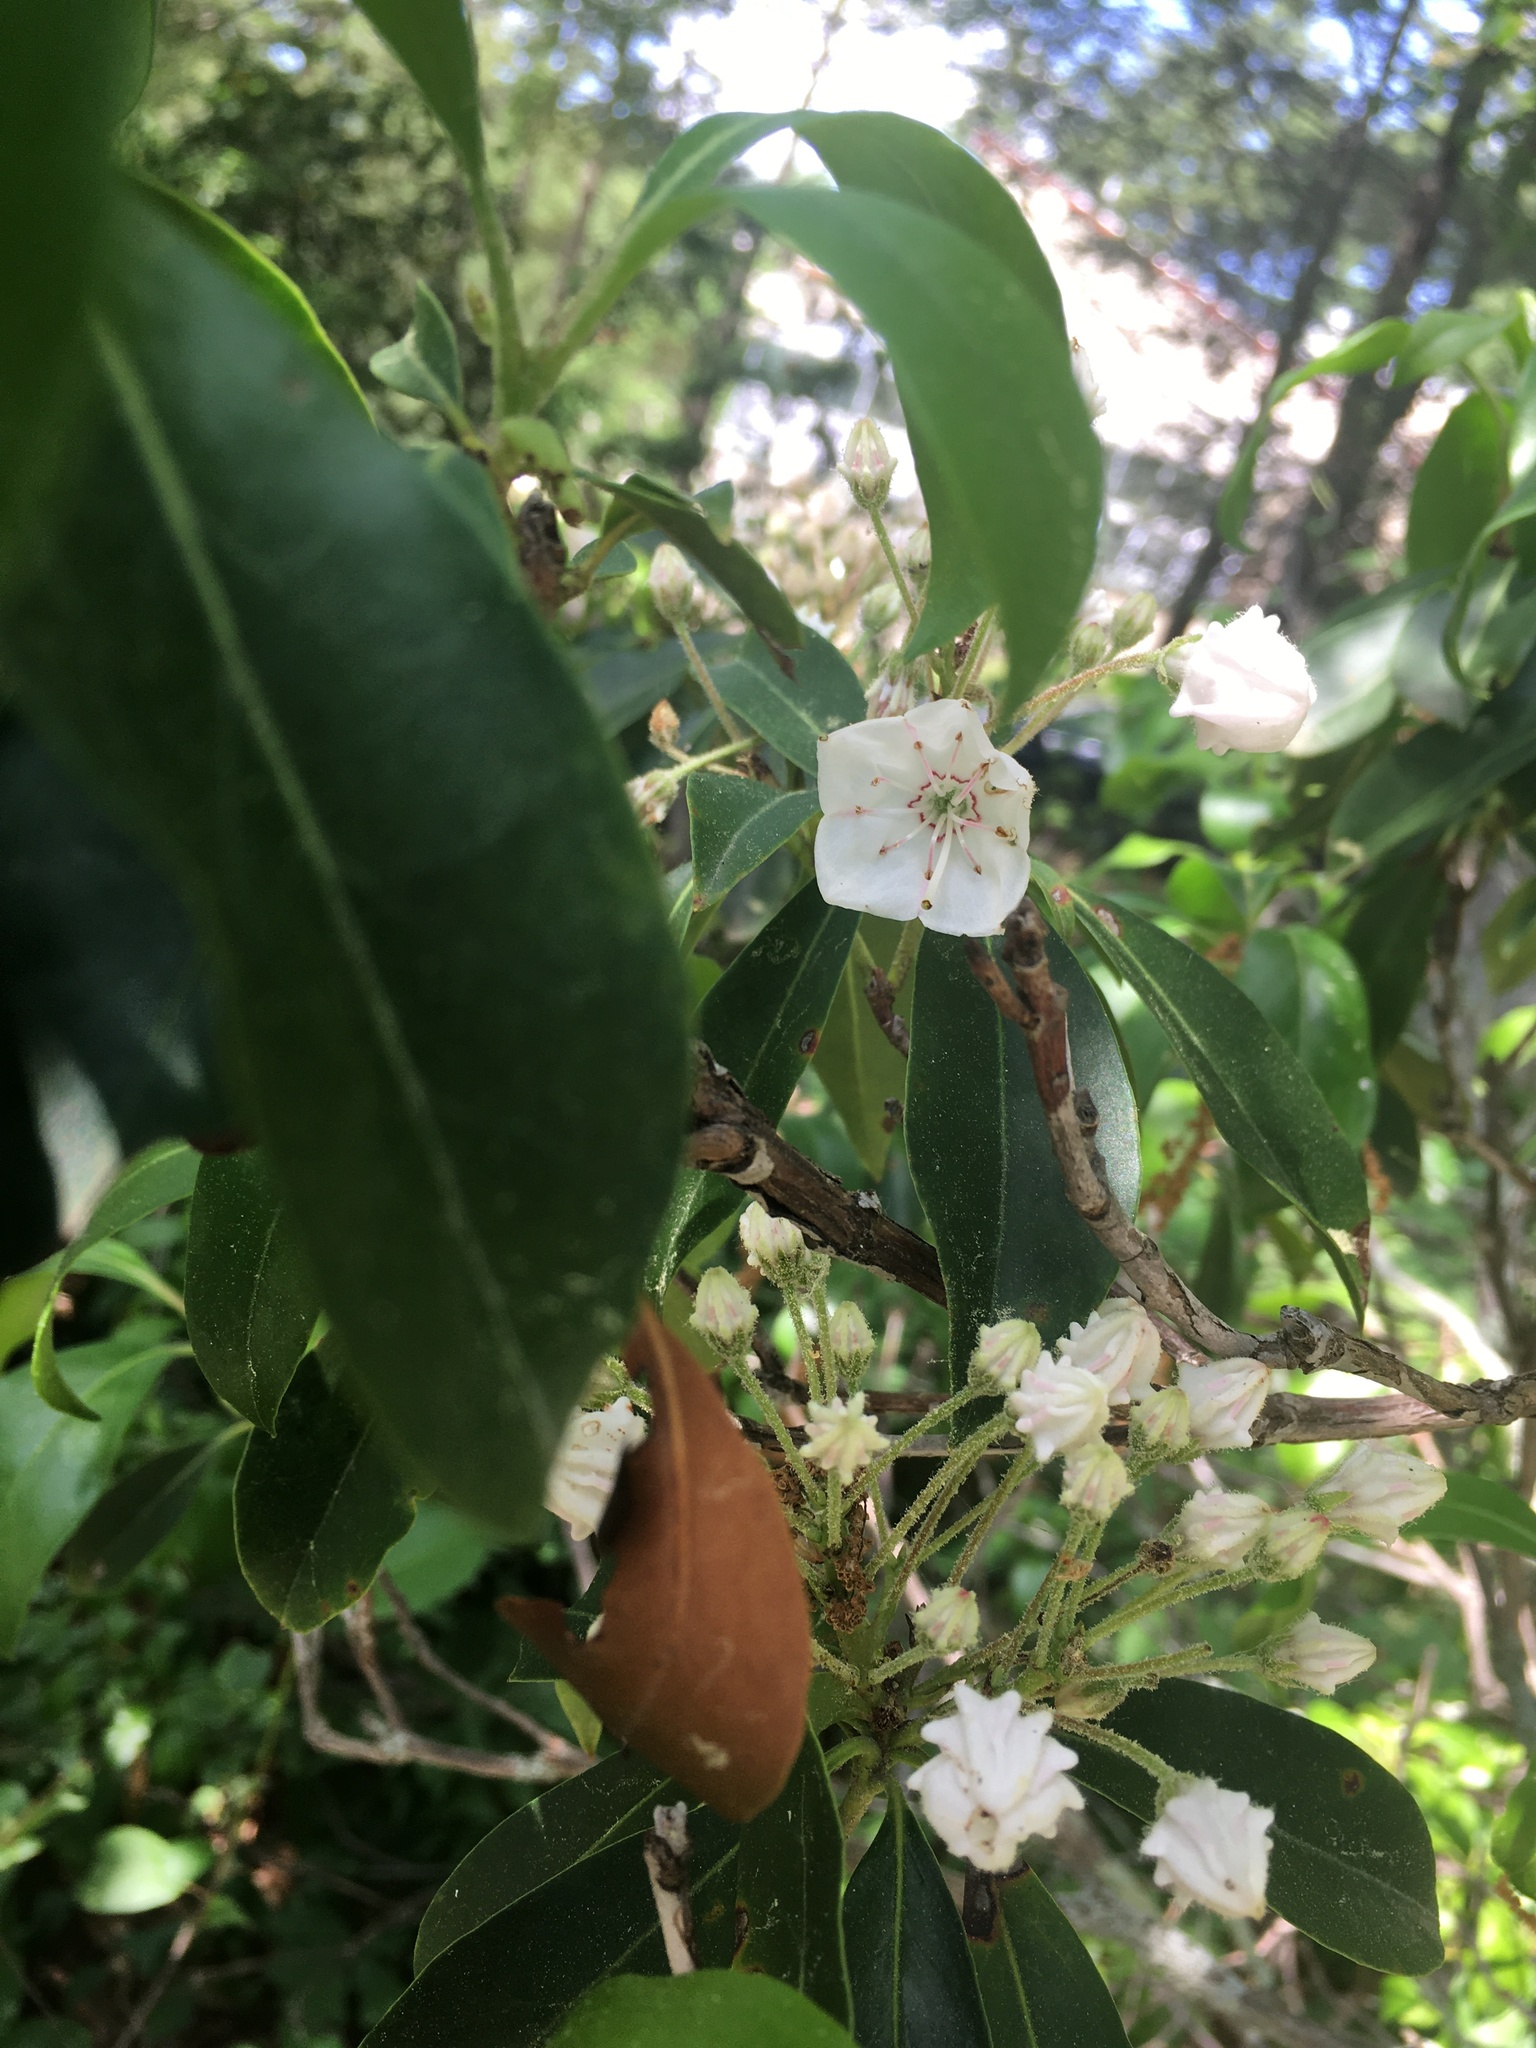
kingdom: Plantae
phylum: Tracheophyta
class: Magnoliopsida
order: Ericales
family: Ericaceae
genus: Kalmia
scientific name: Kalmia latifolia
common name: Mountain-laurel
